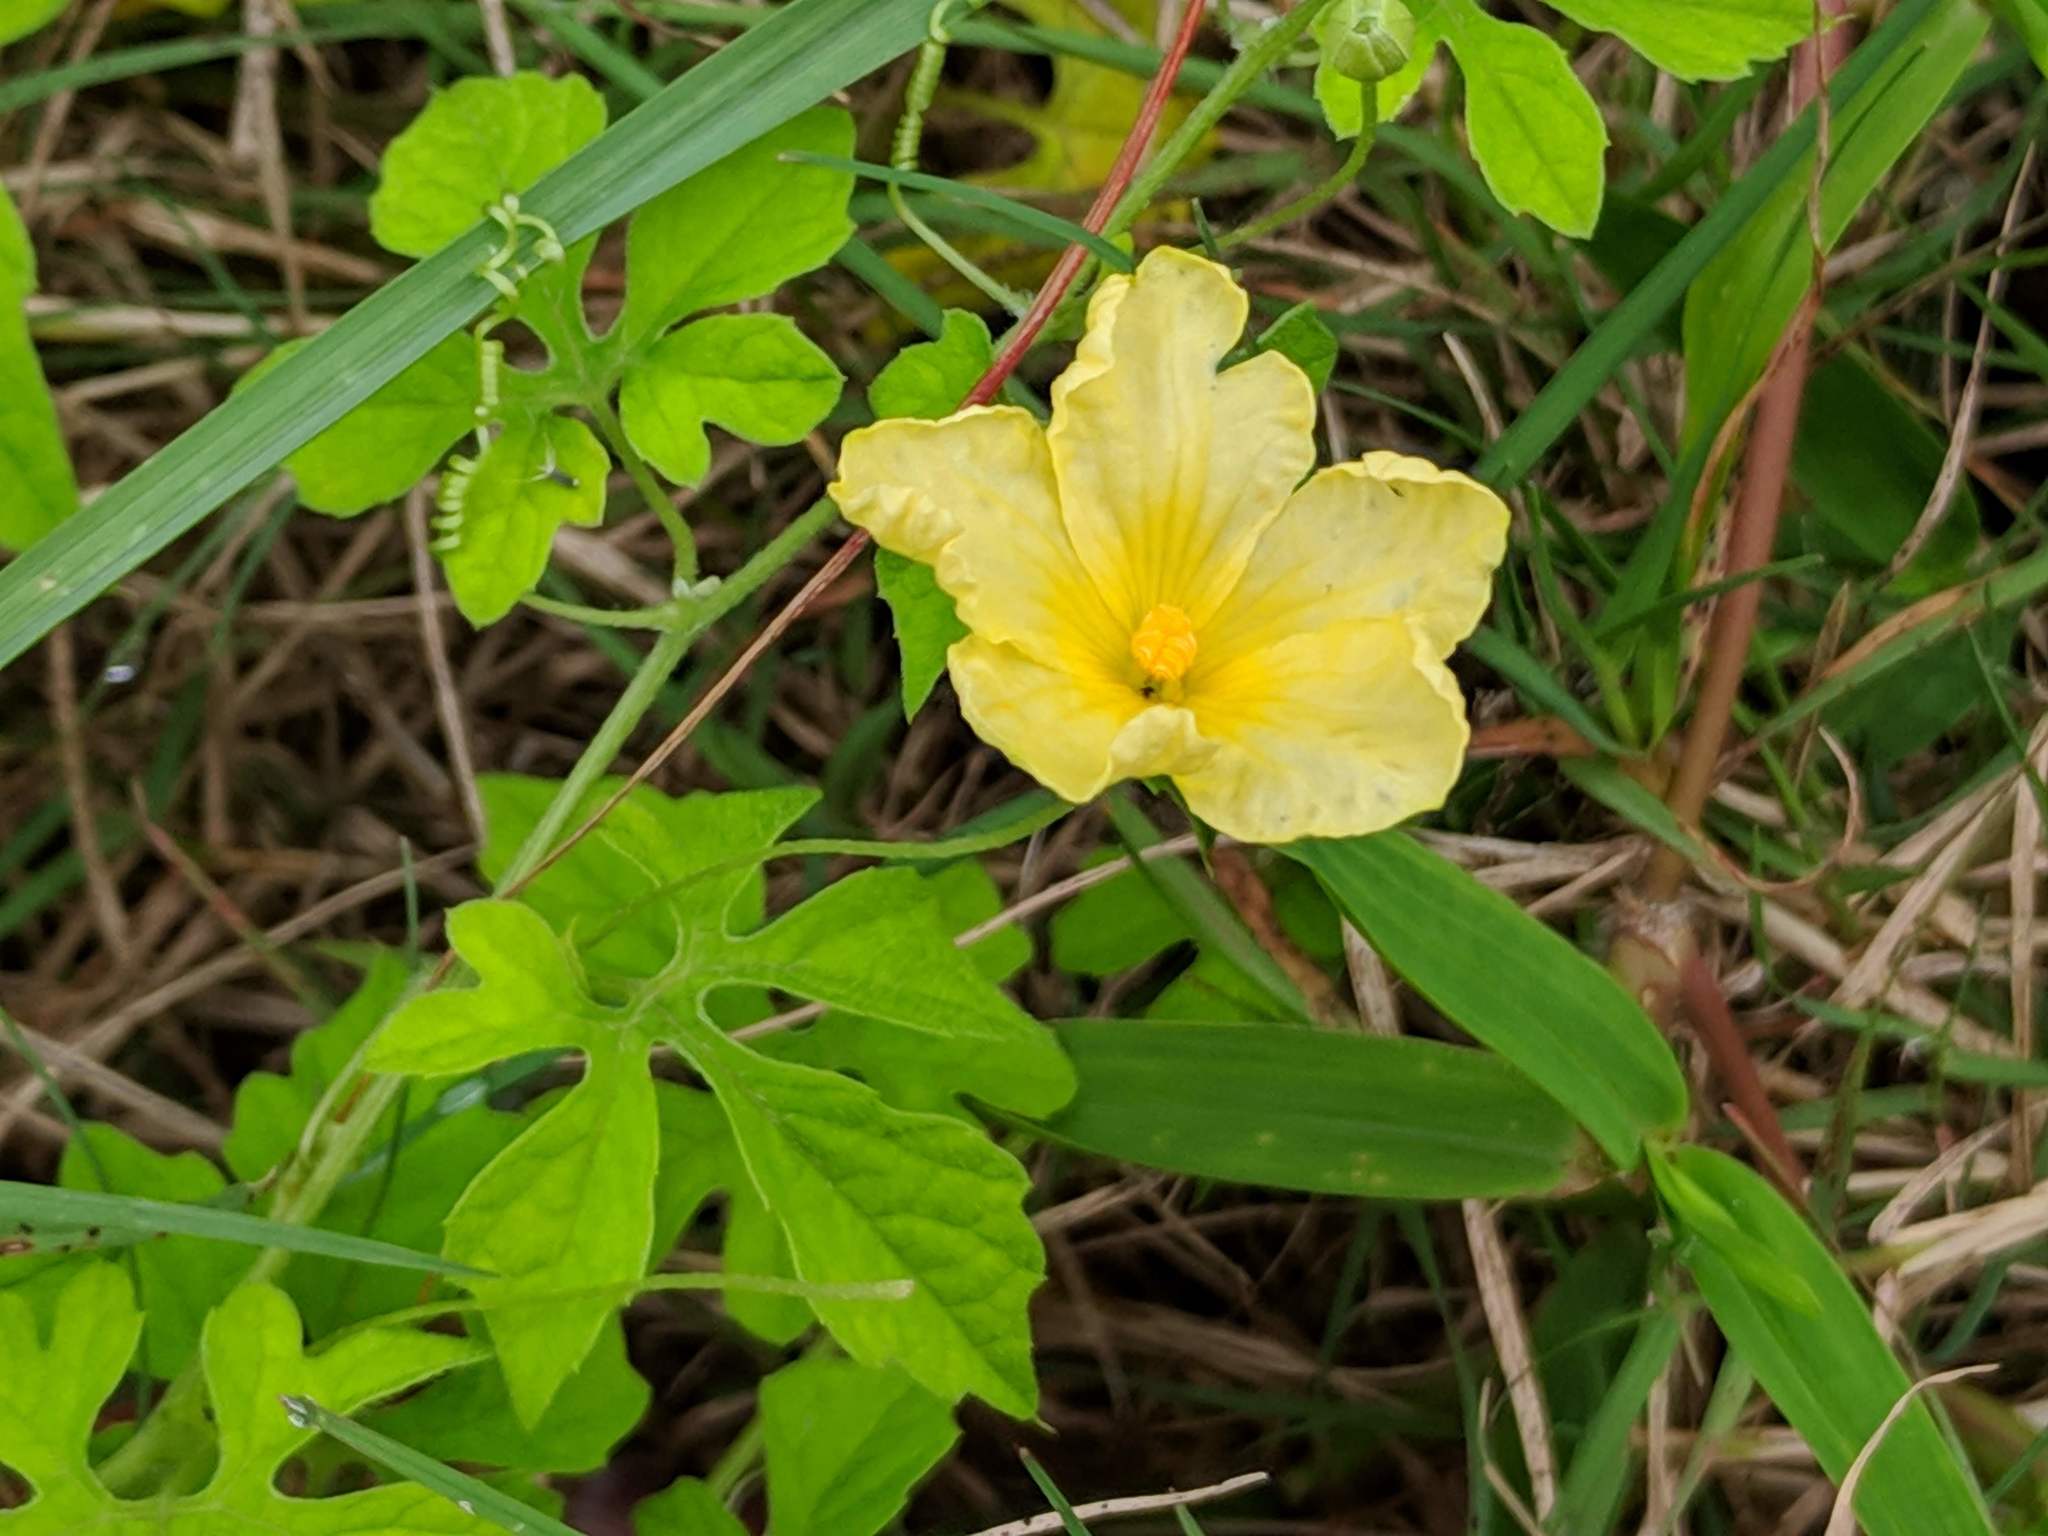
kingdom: Plantae
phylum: Tracheophyta
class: Magnoliopsida
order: Cucurbitales
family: Cucurbitaceae
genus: Momordica
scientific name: Momordica charantia
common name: Balsampear
